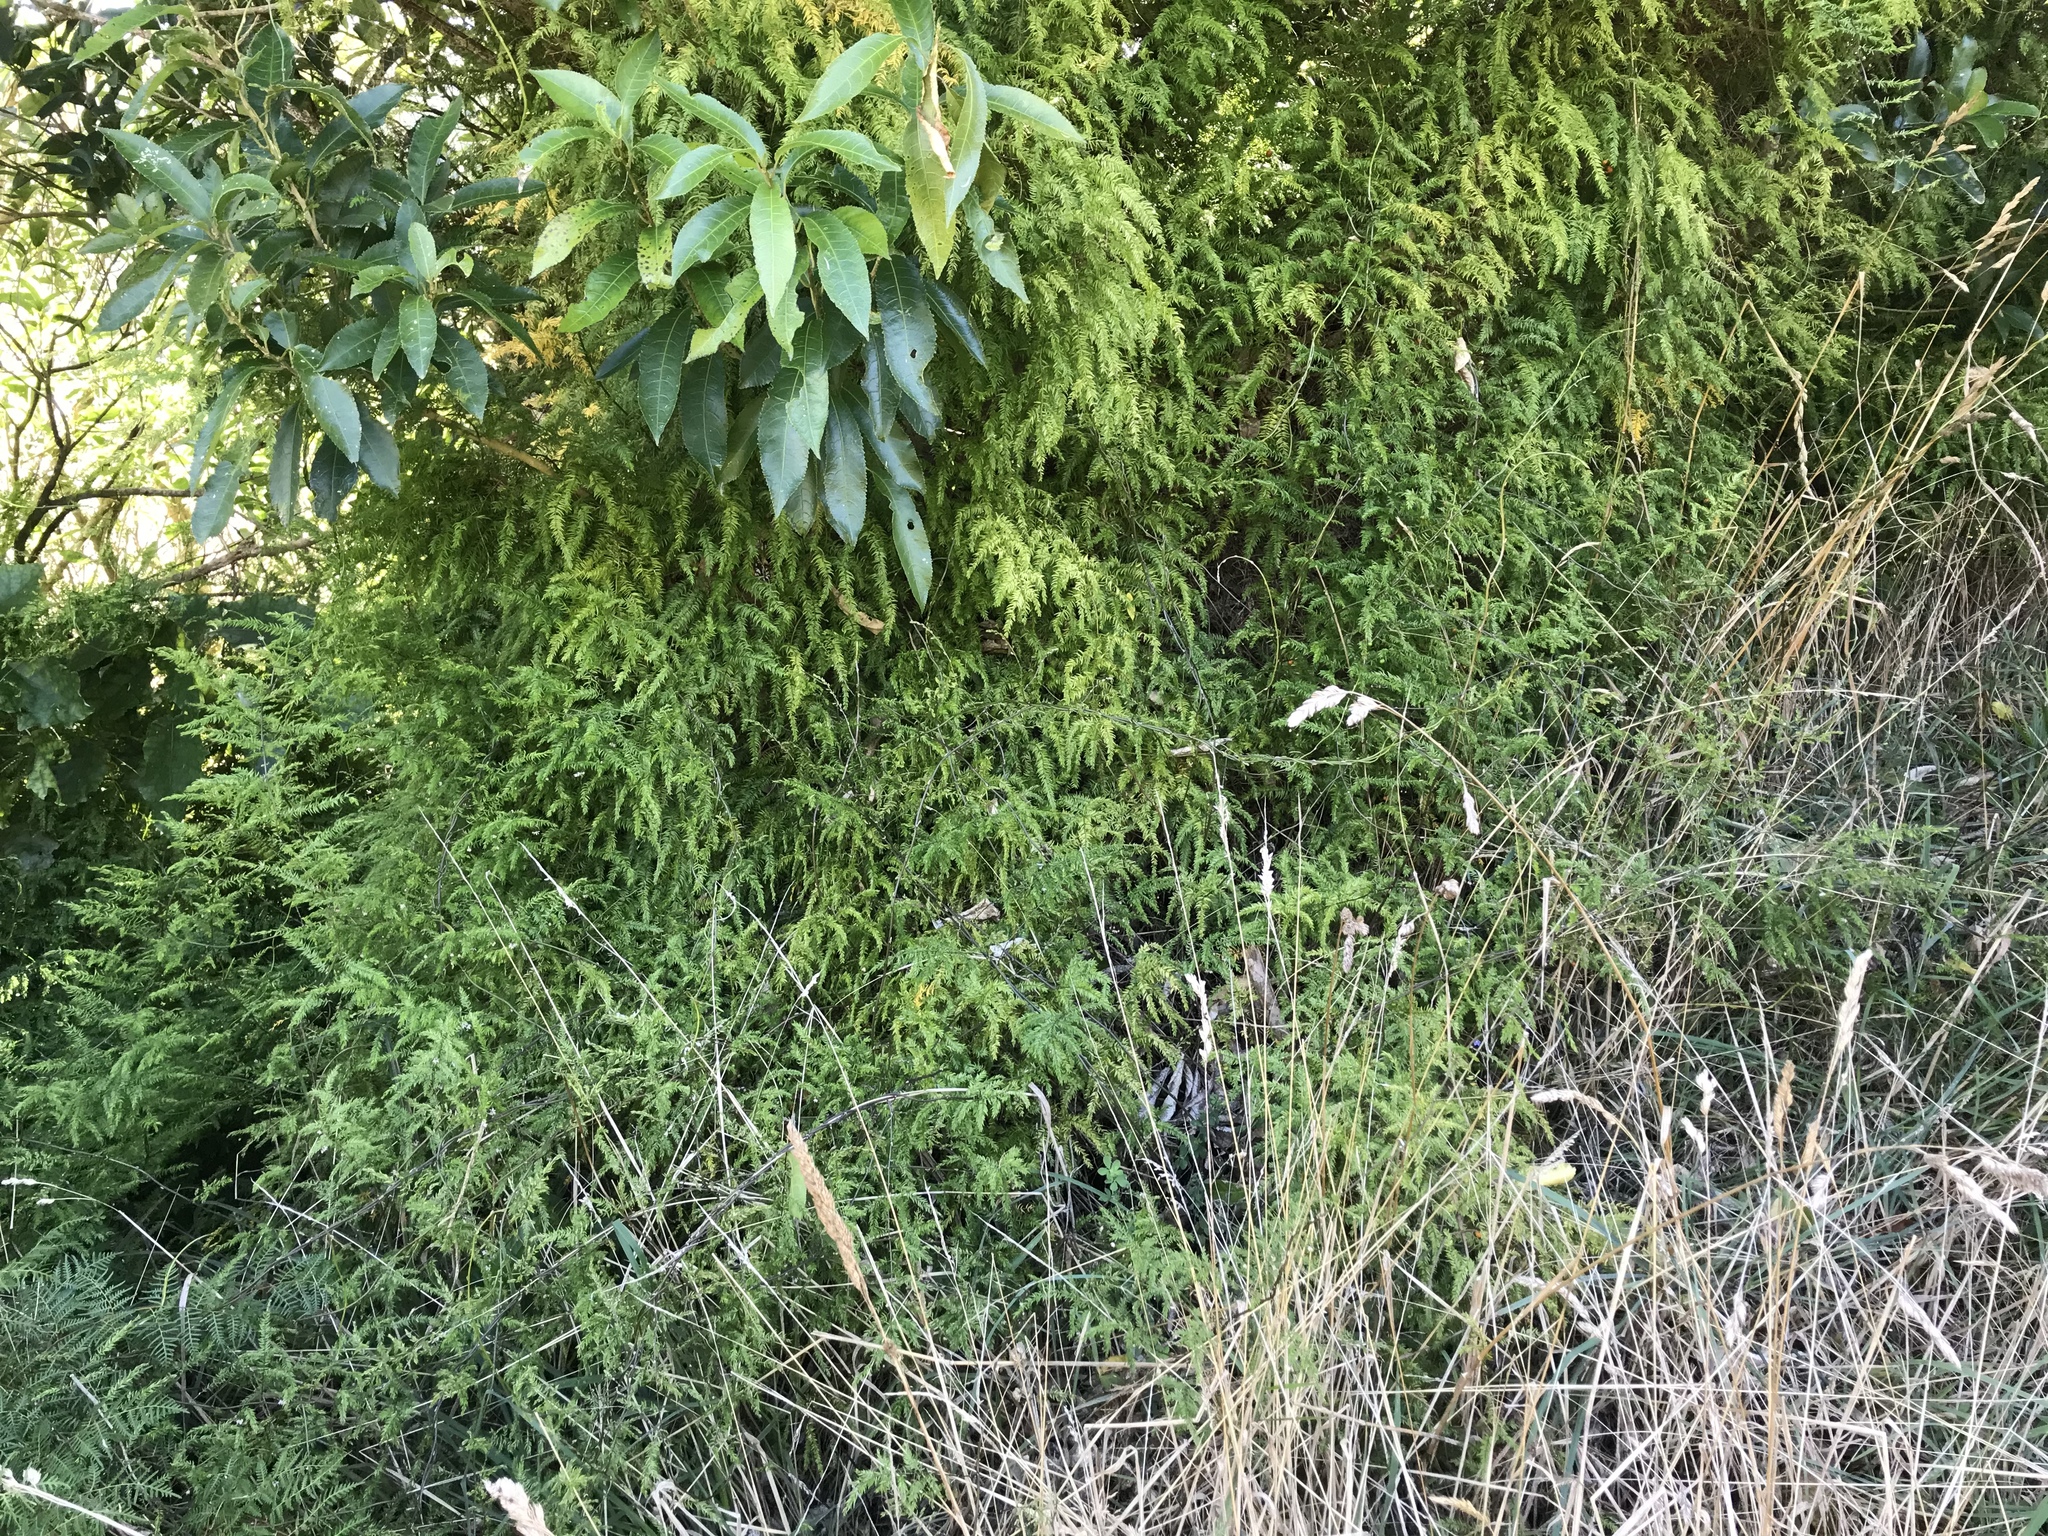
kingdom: Plantae
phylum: Tracheophyta
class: Liliopsida
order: Asparagales
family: Asparagaceae
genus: Asparagus
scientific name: Asparagus scandens
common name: Asparagus-fern
